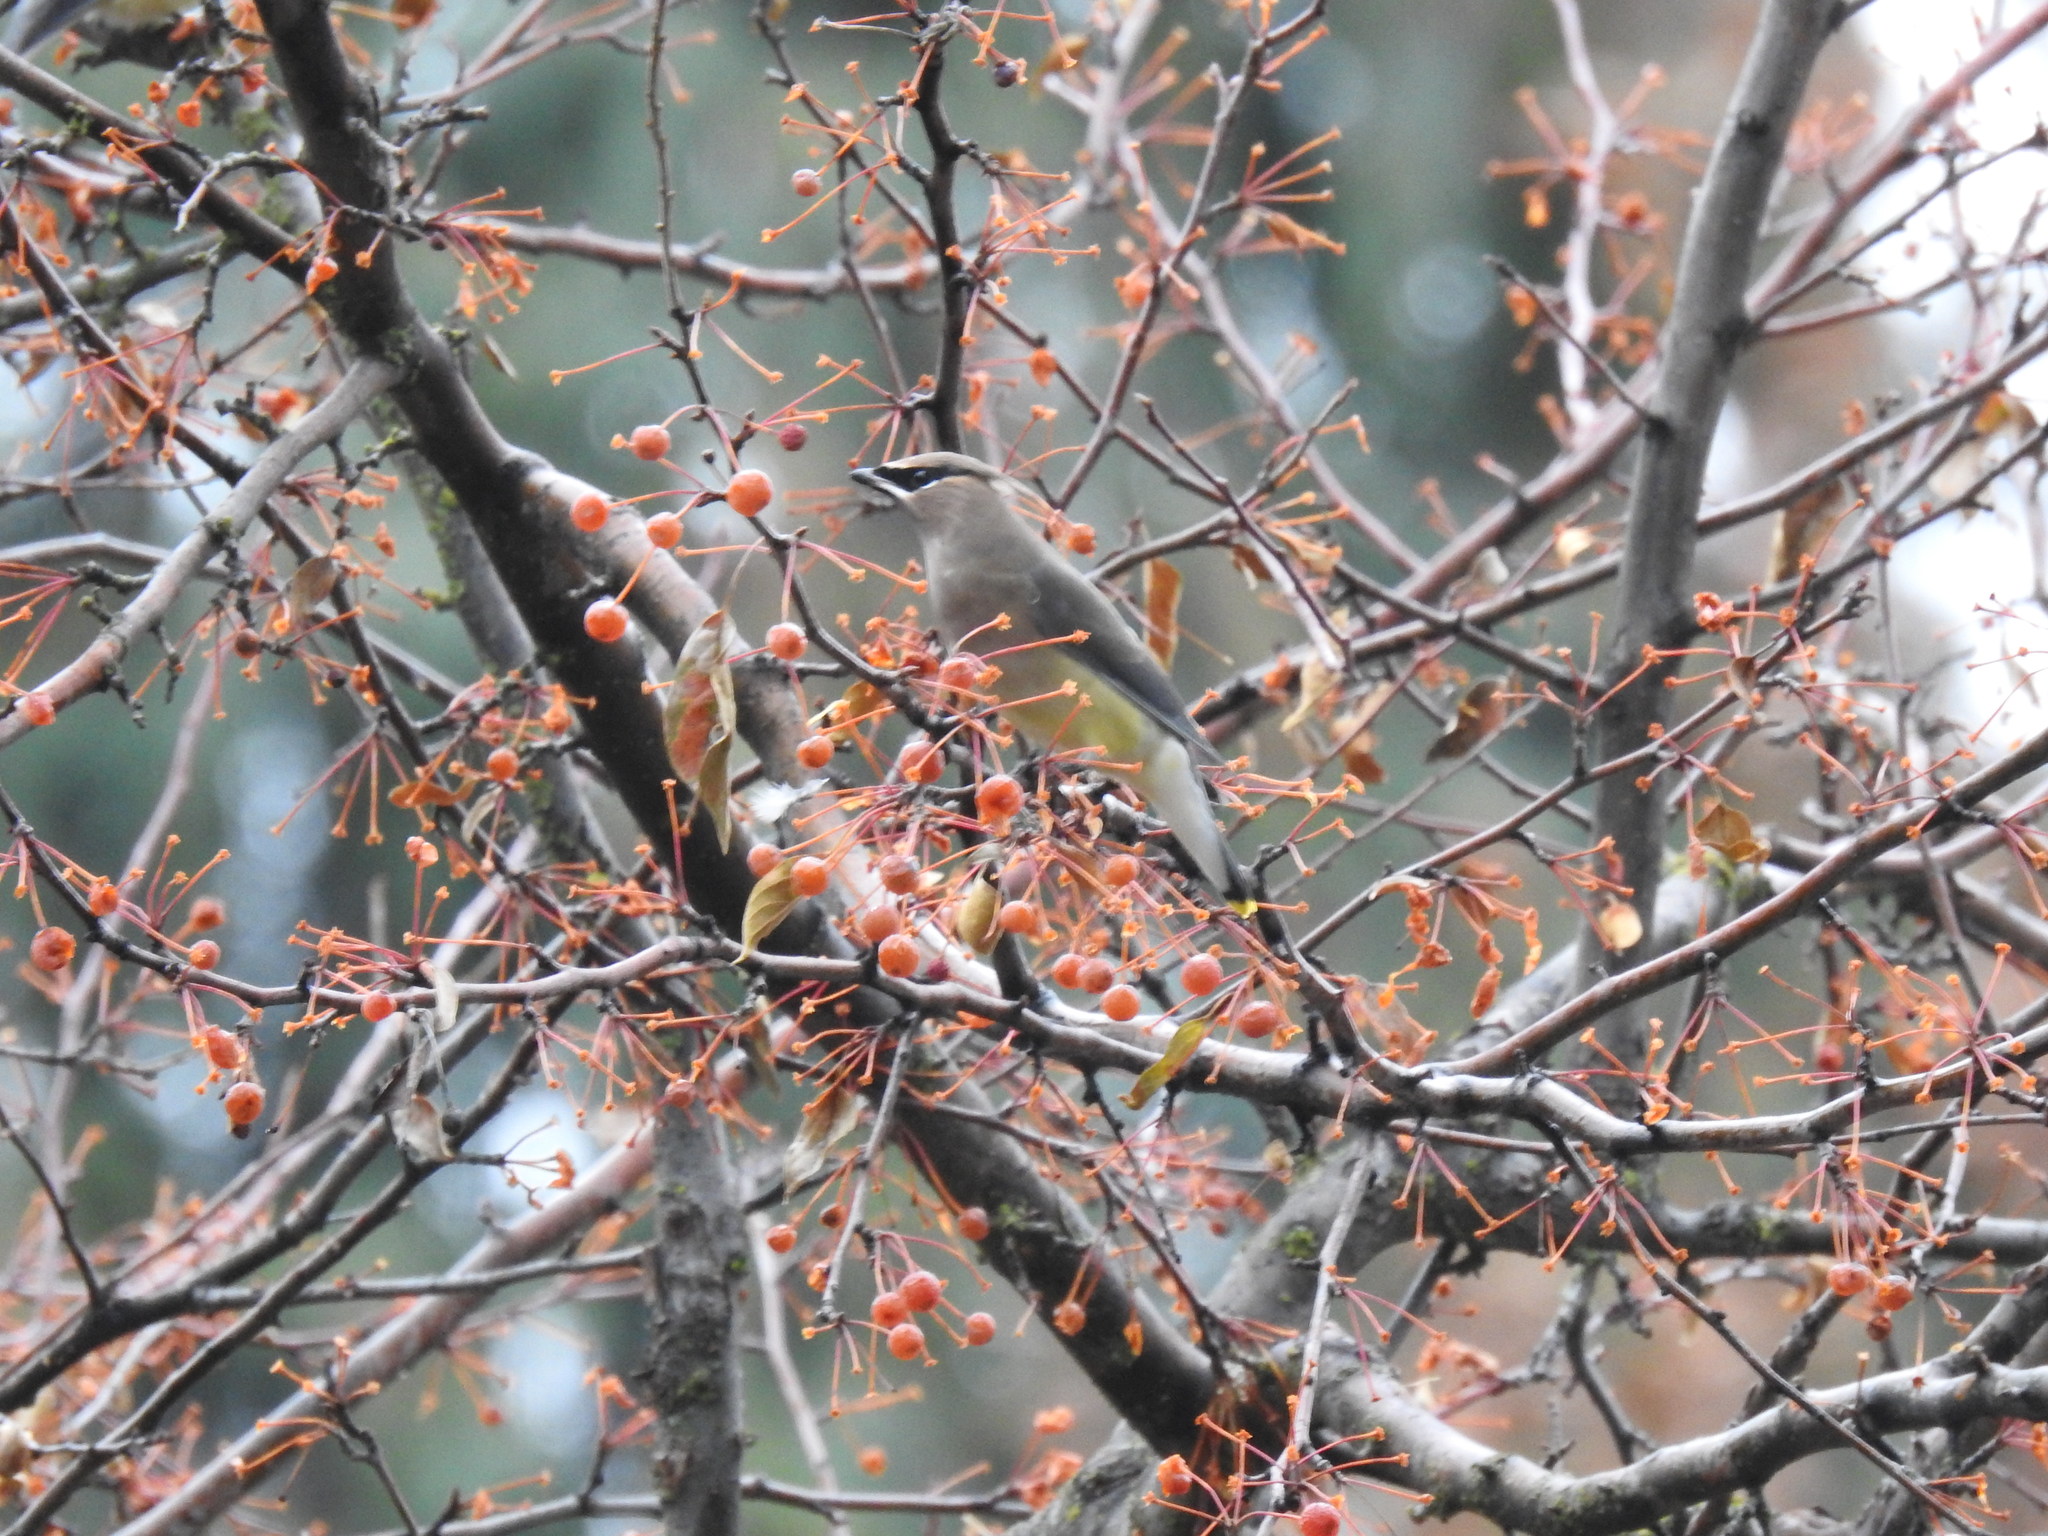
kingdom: Animalia
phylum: Chordata
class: Aves
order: Passeriformes
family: Bombycillidae
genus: Bombycilla
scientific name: Bombycilla cedrorum
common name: Cedar waxwing
